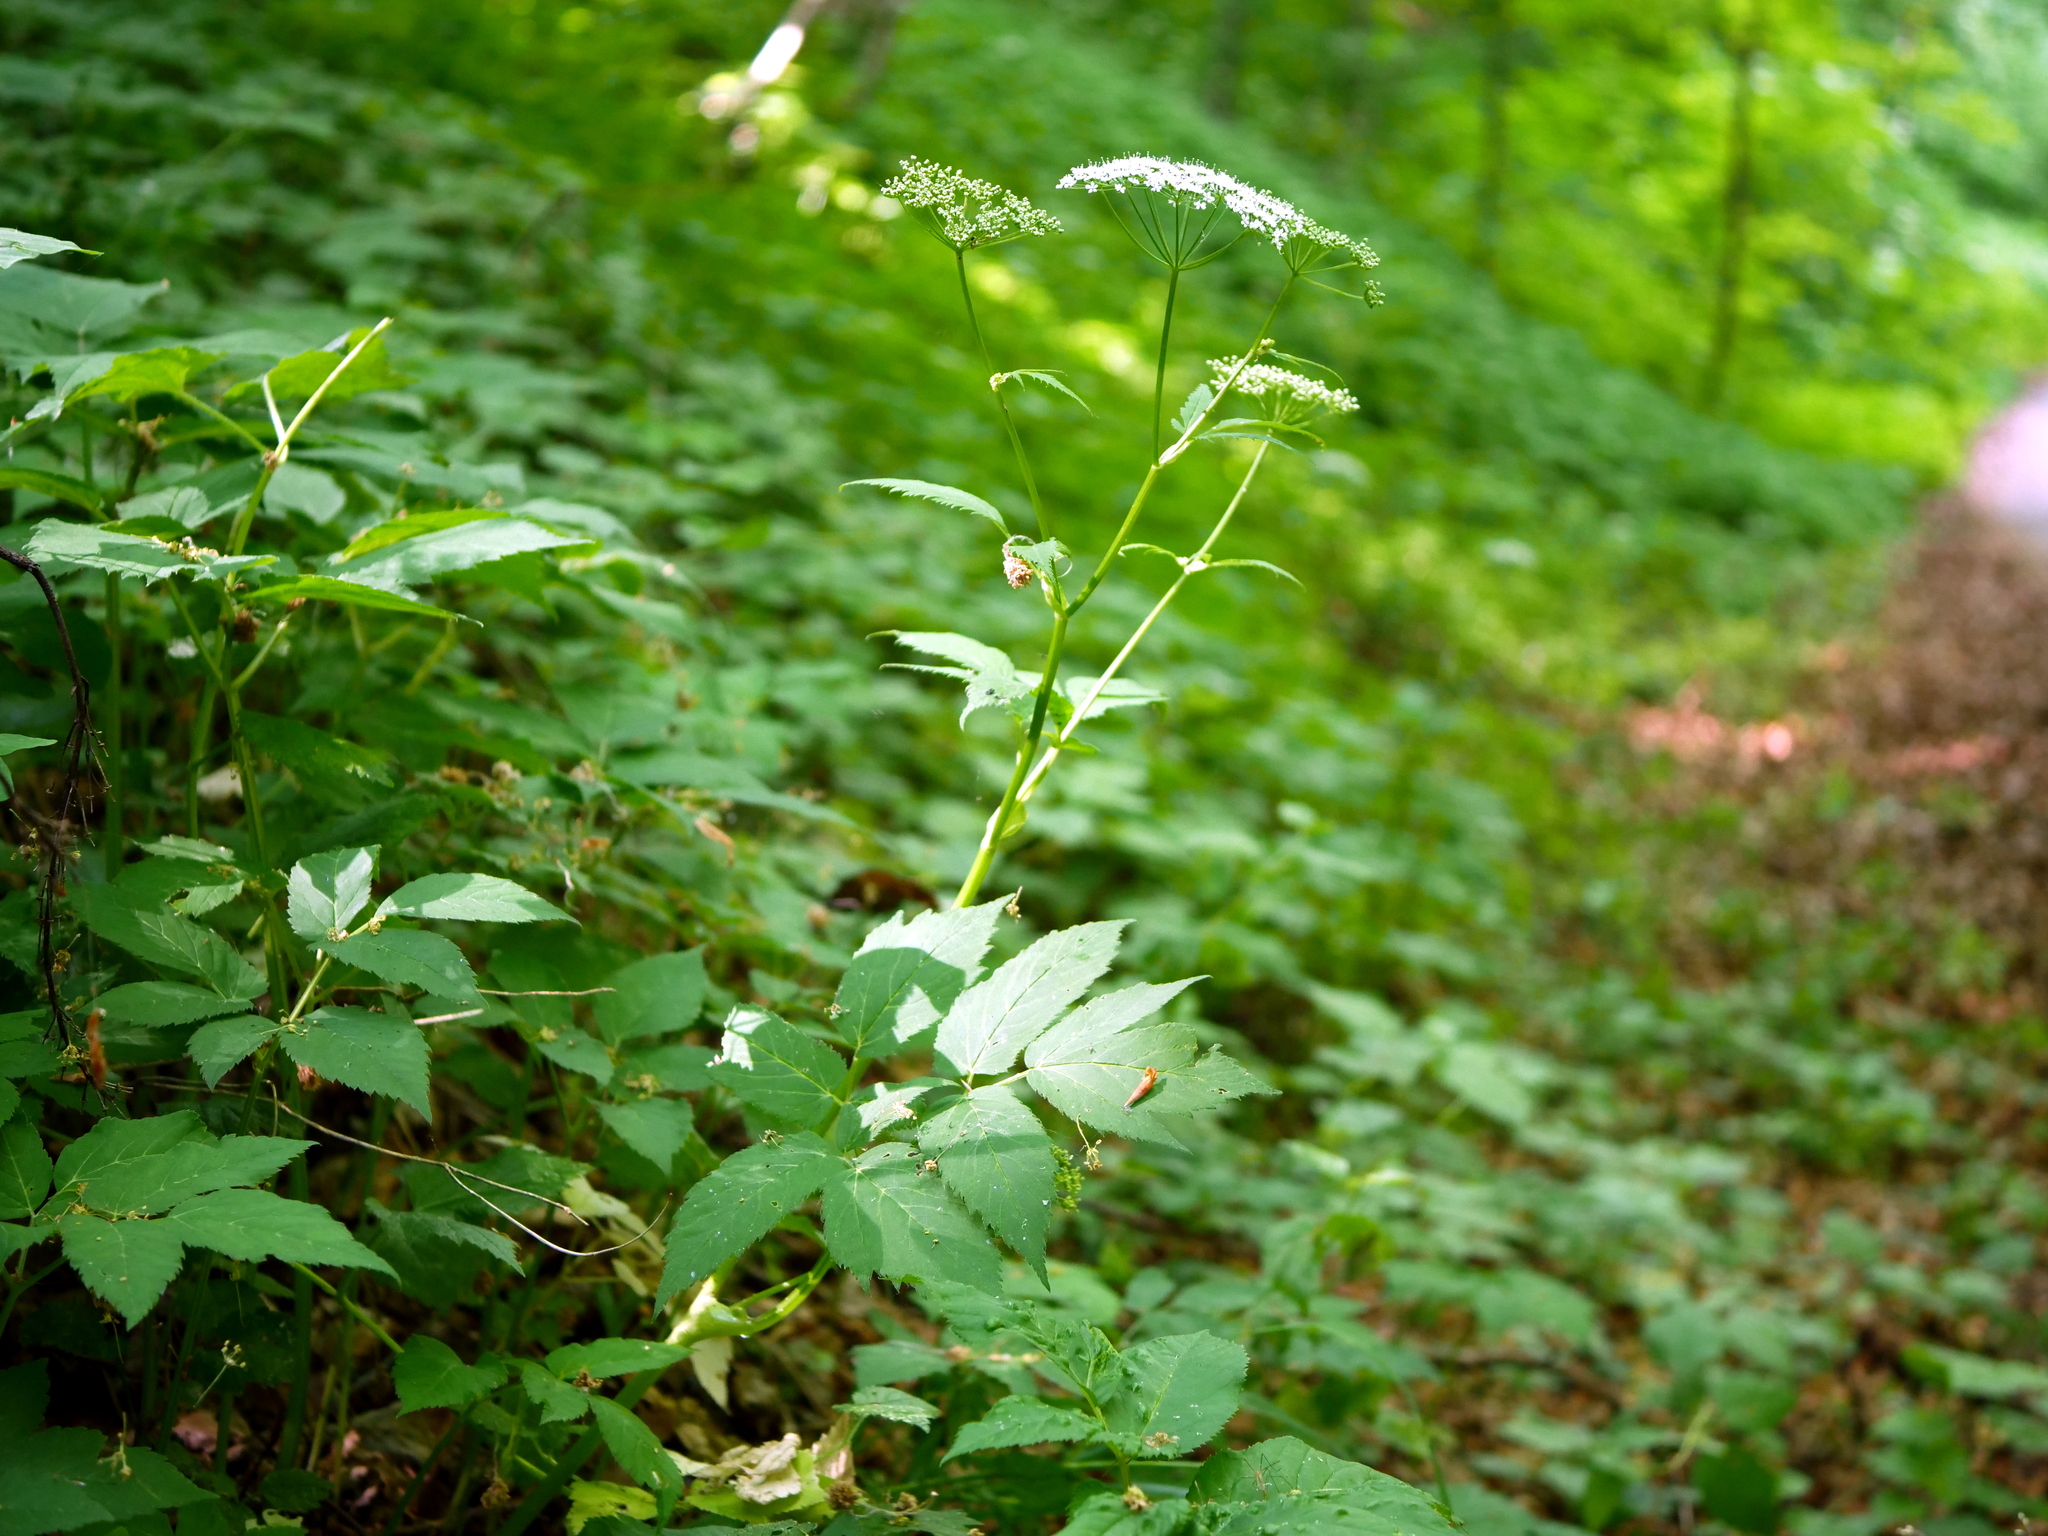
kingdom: Plantae
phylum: Tracheophyta
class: Magnoliopsida
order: Apiales
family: Apiaceae
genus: Aegopodium
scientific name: Aegopodium podagraria
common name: Ground-elder
